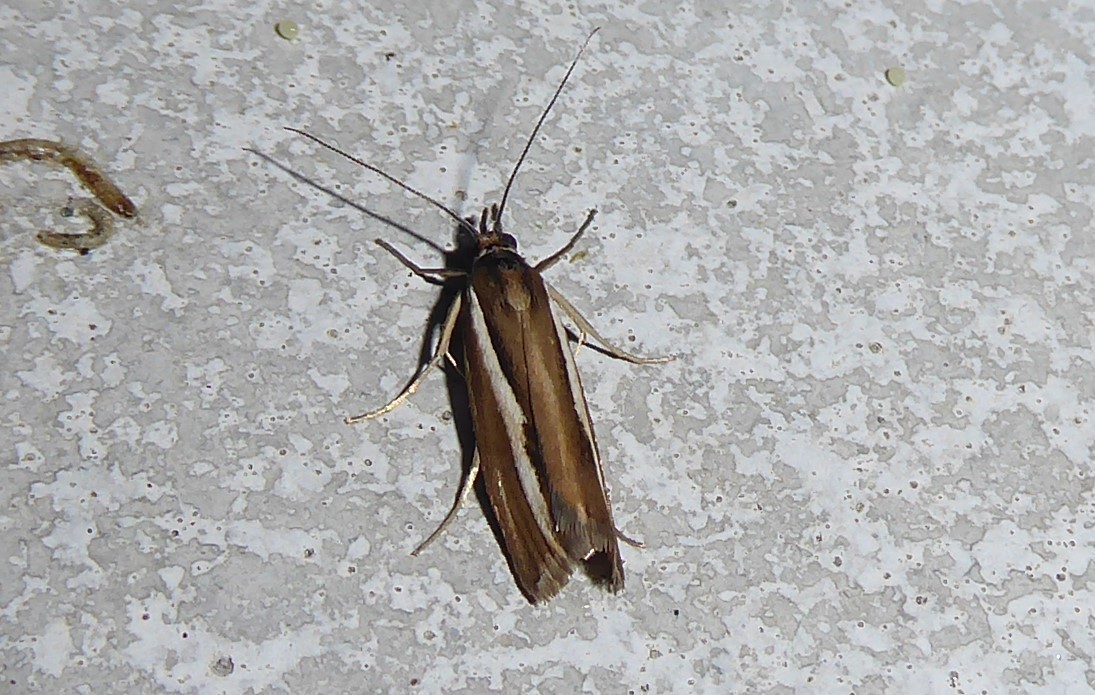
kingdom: Animalia
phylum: Arthropoda
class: Insecta
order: Lepidoptera
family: Crambidae
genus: Orocrambus
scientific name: Orocrambus melitastes
